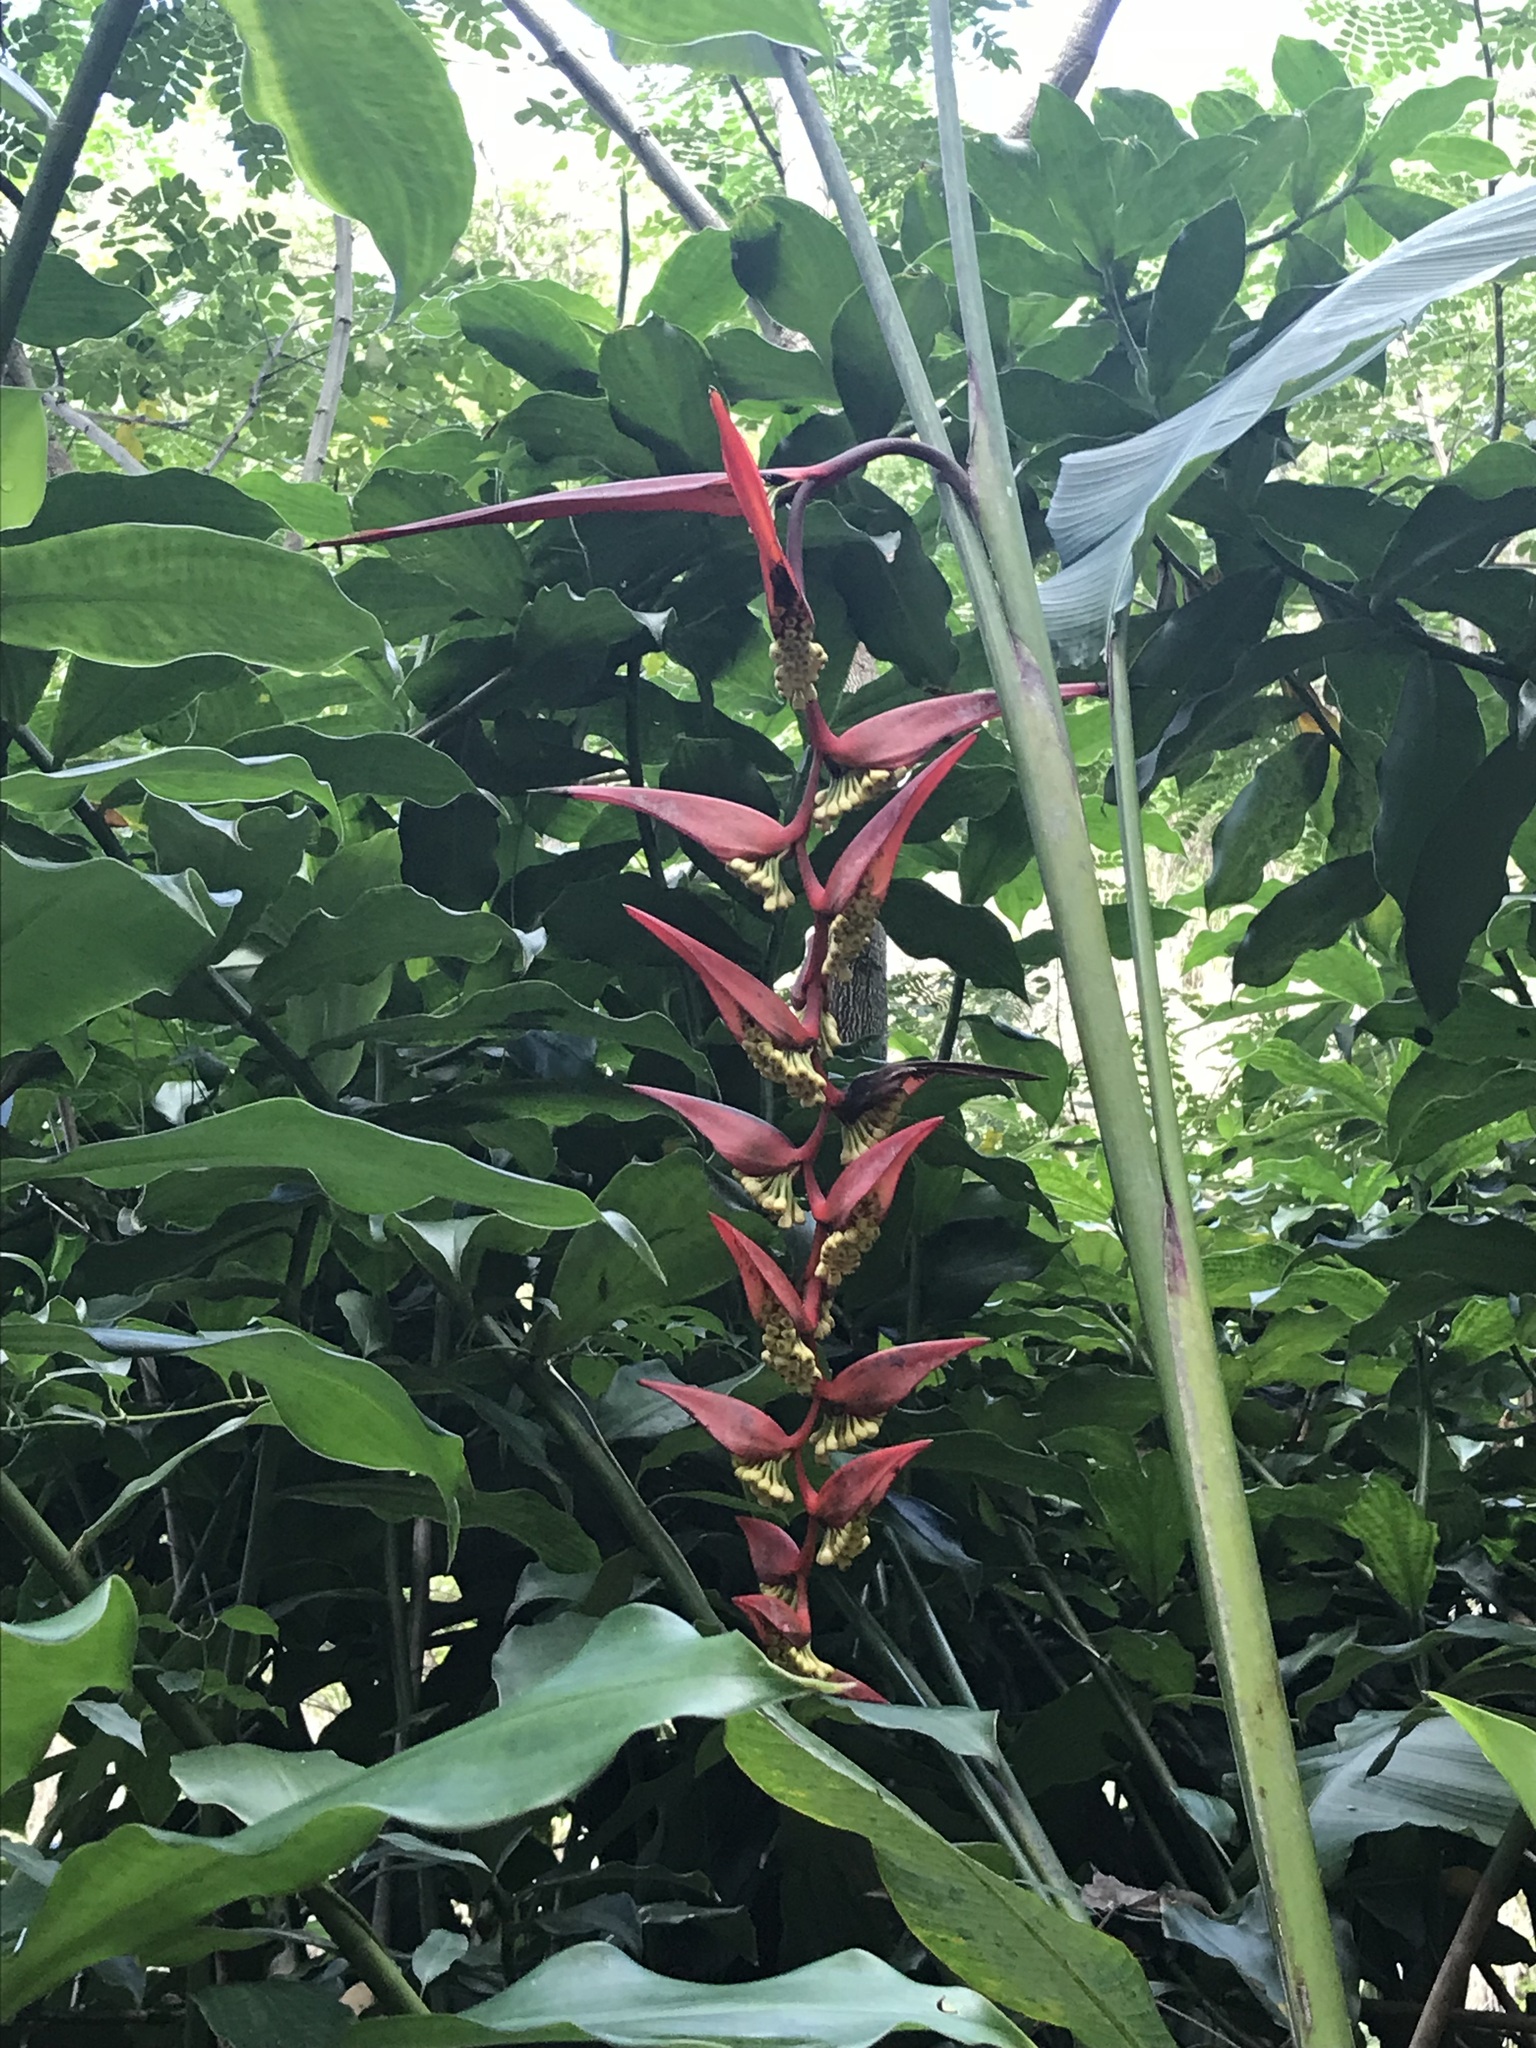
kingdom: Plantae
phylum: Tracheophyta
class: Liliopsida
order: Zingiberales
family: Heliconiaceae
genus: Heliconia
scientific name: Heliconia collinsiana
